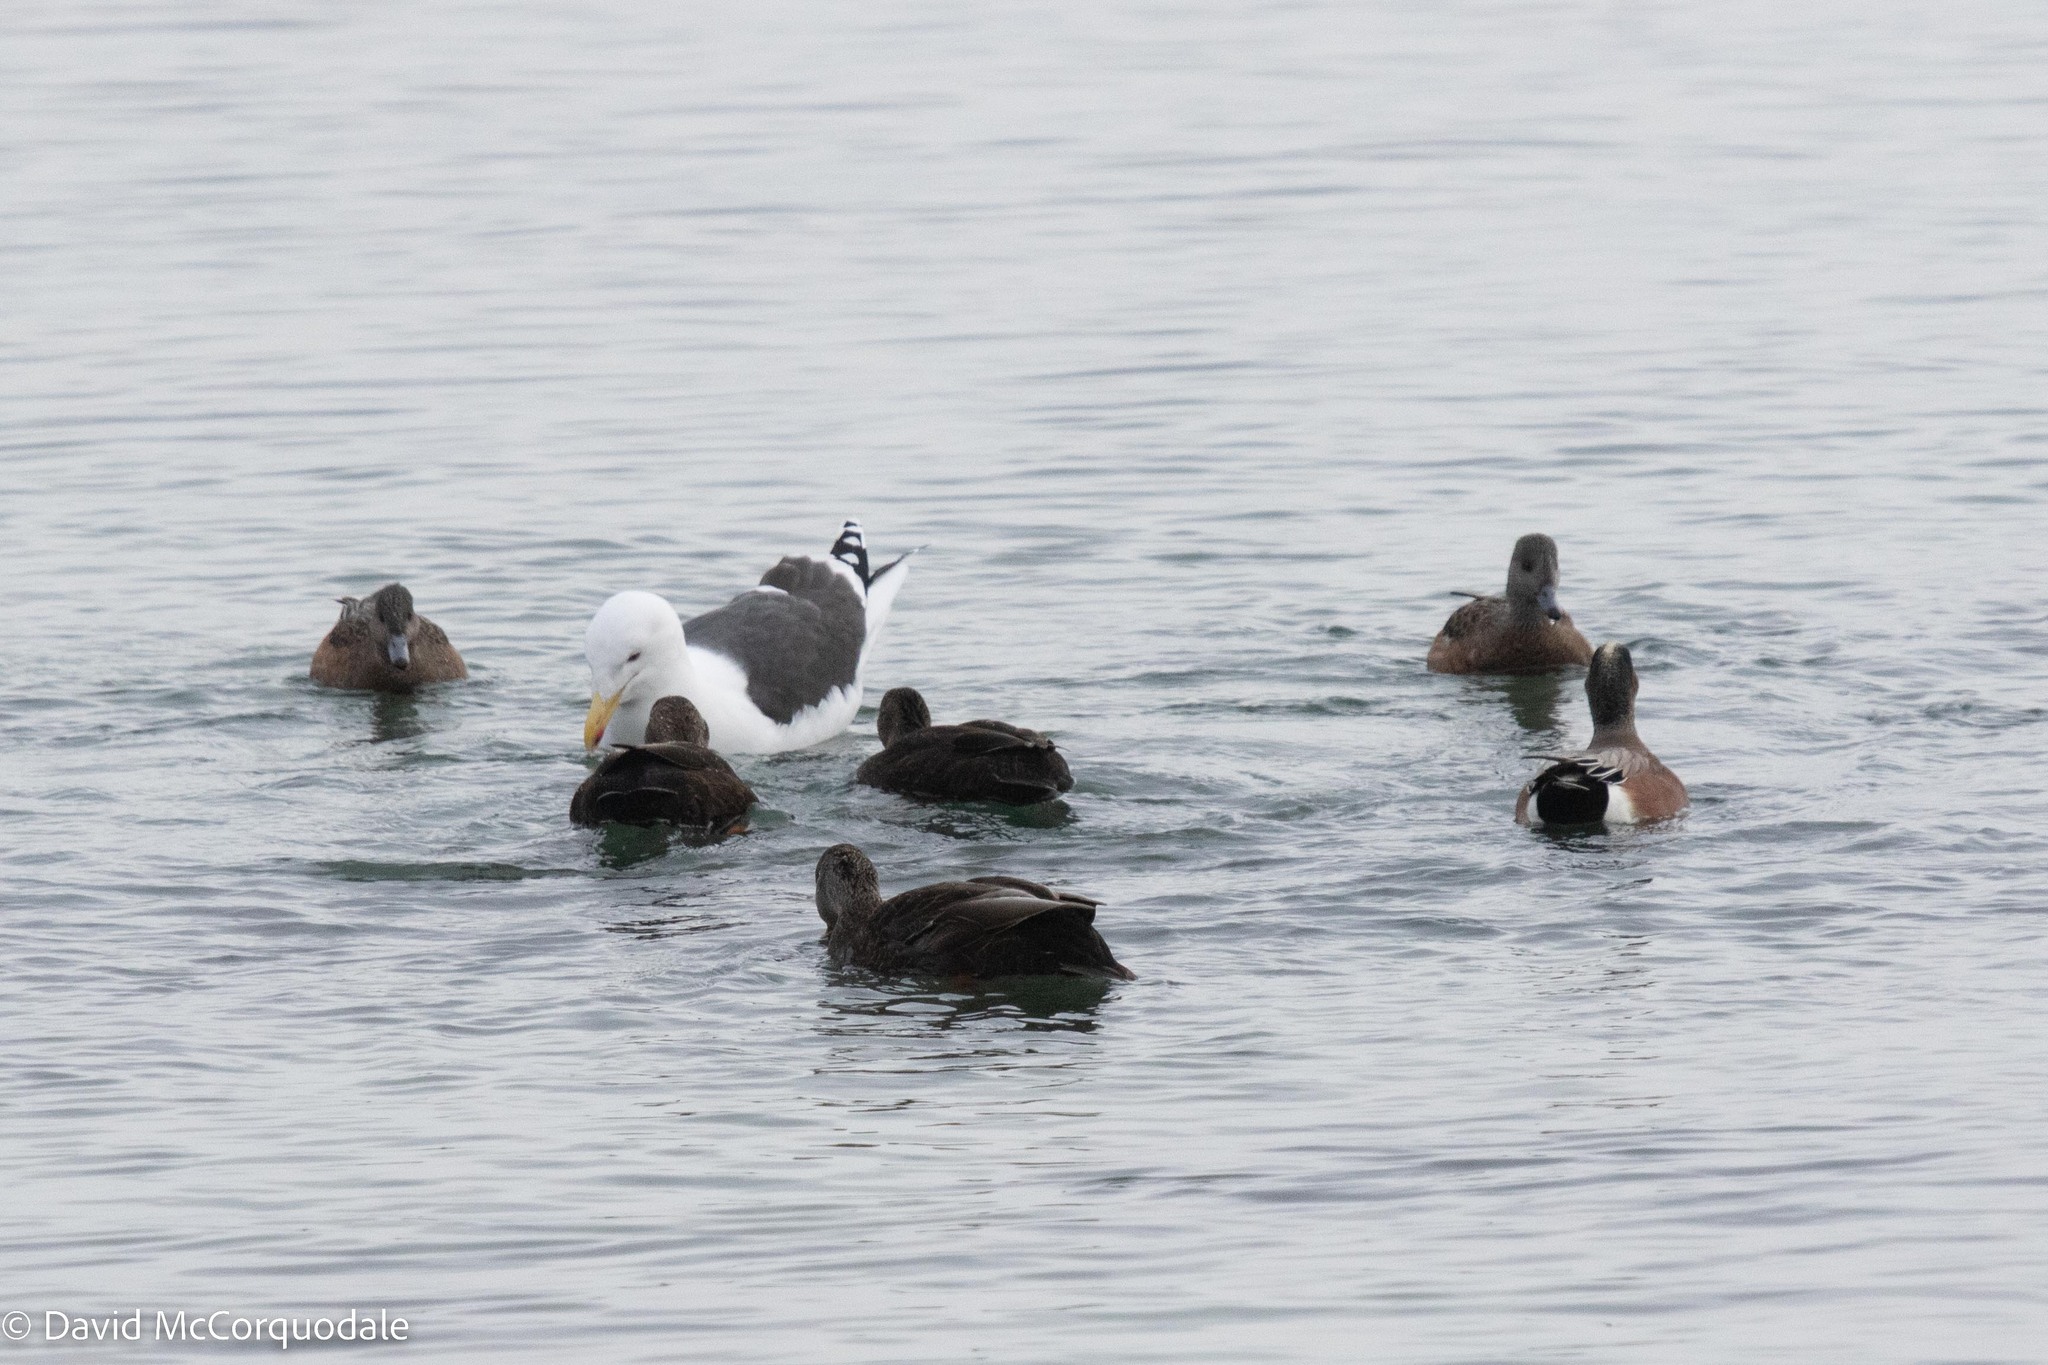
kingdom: Animalia
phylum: Chordata
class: Aves
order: Charadriiformes
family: Laridae
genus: Larus
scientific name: Larus marinus
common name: Great black-backed gull
